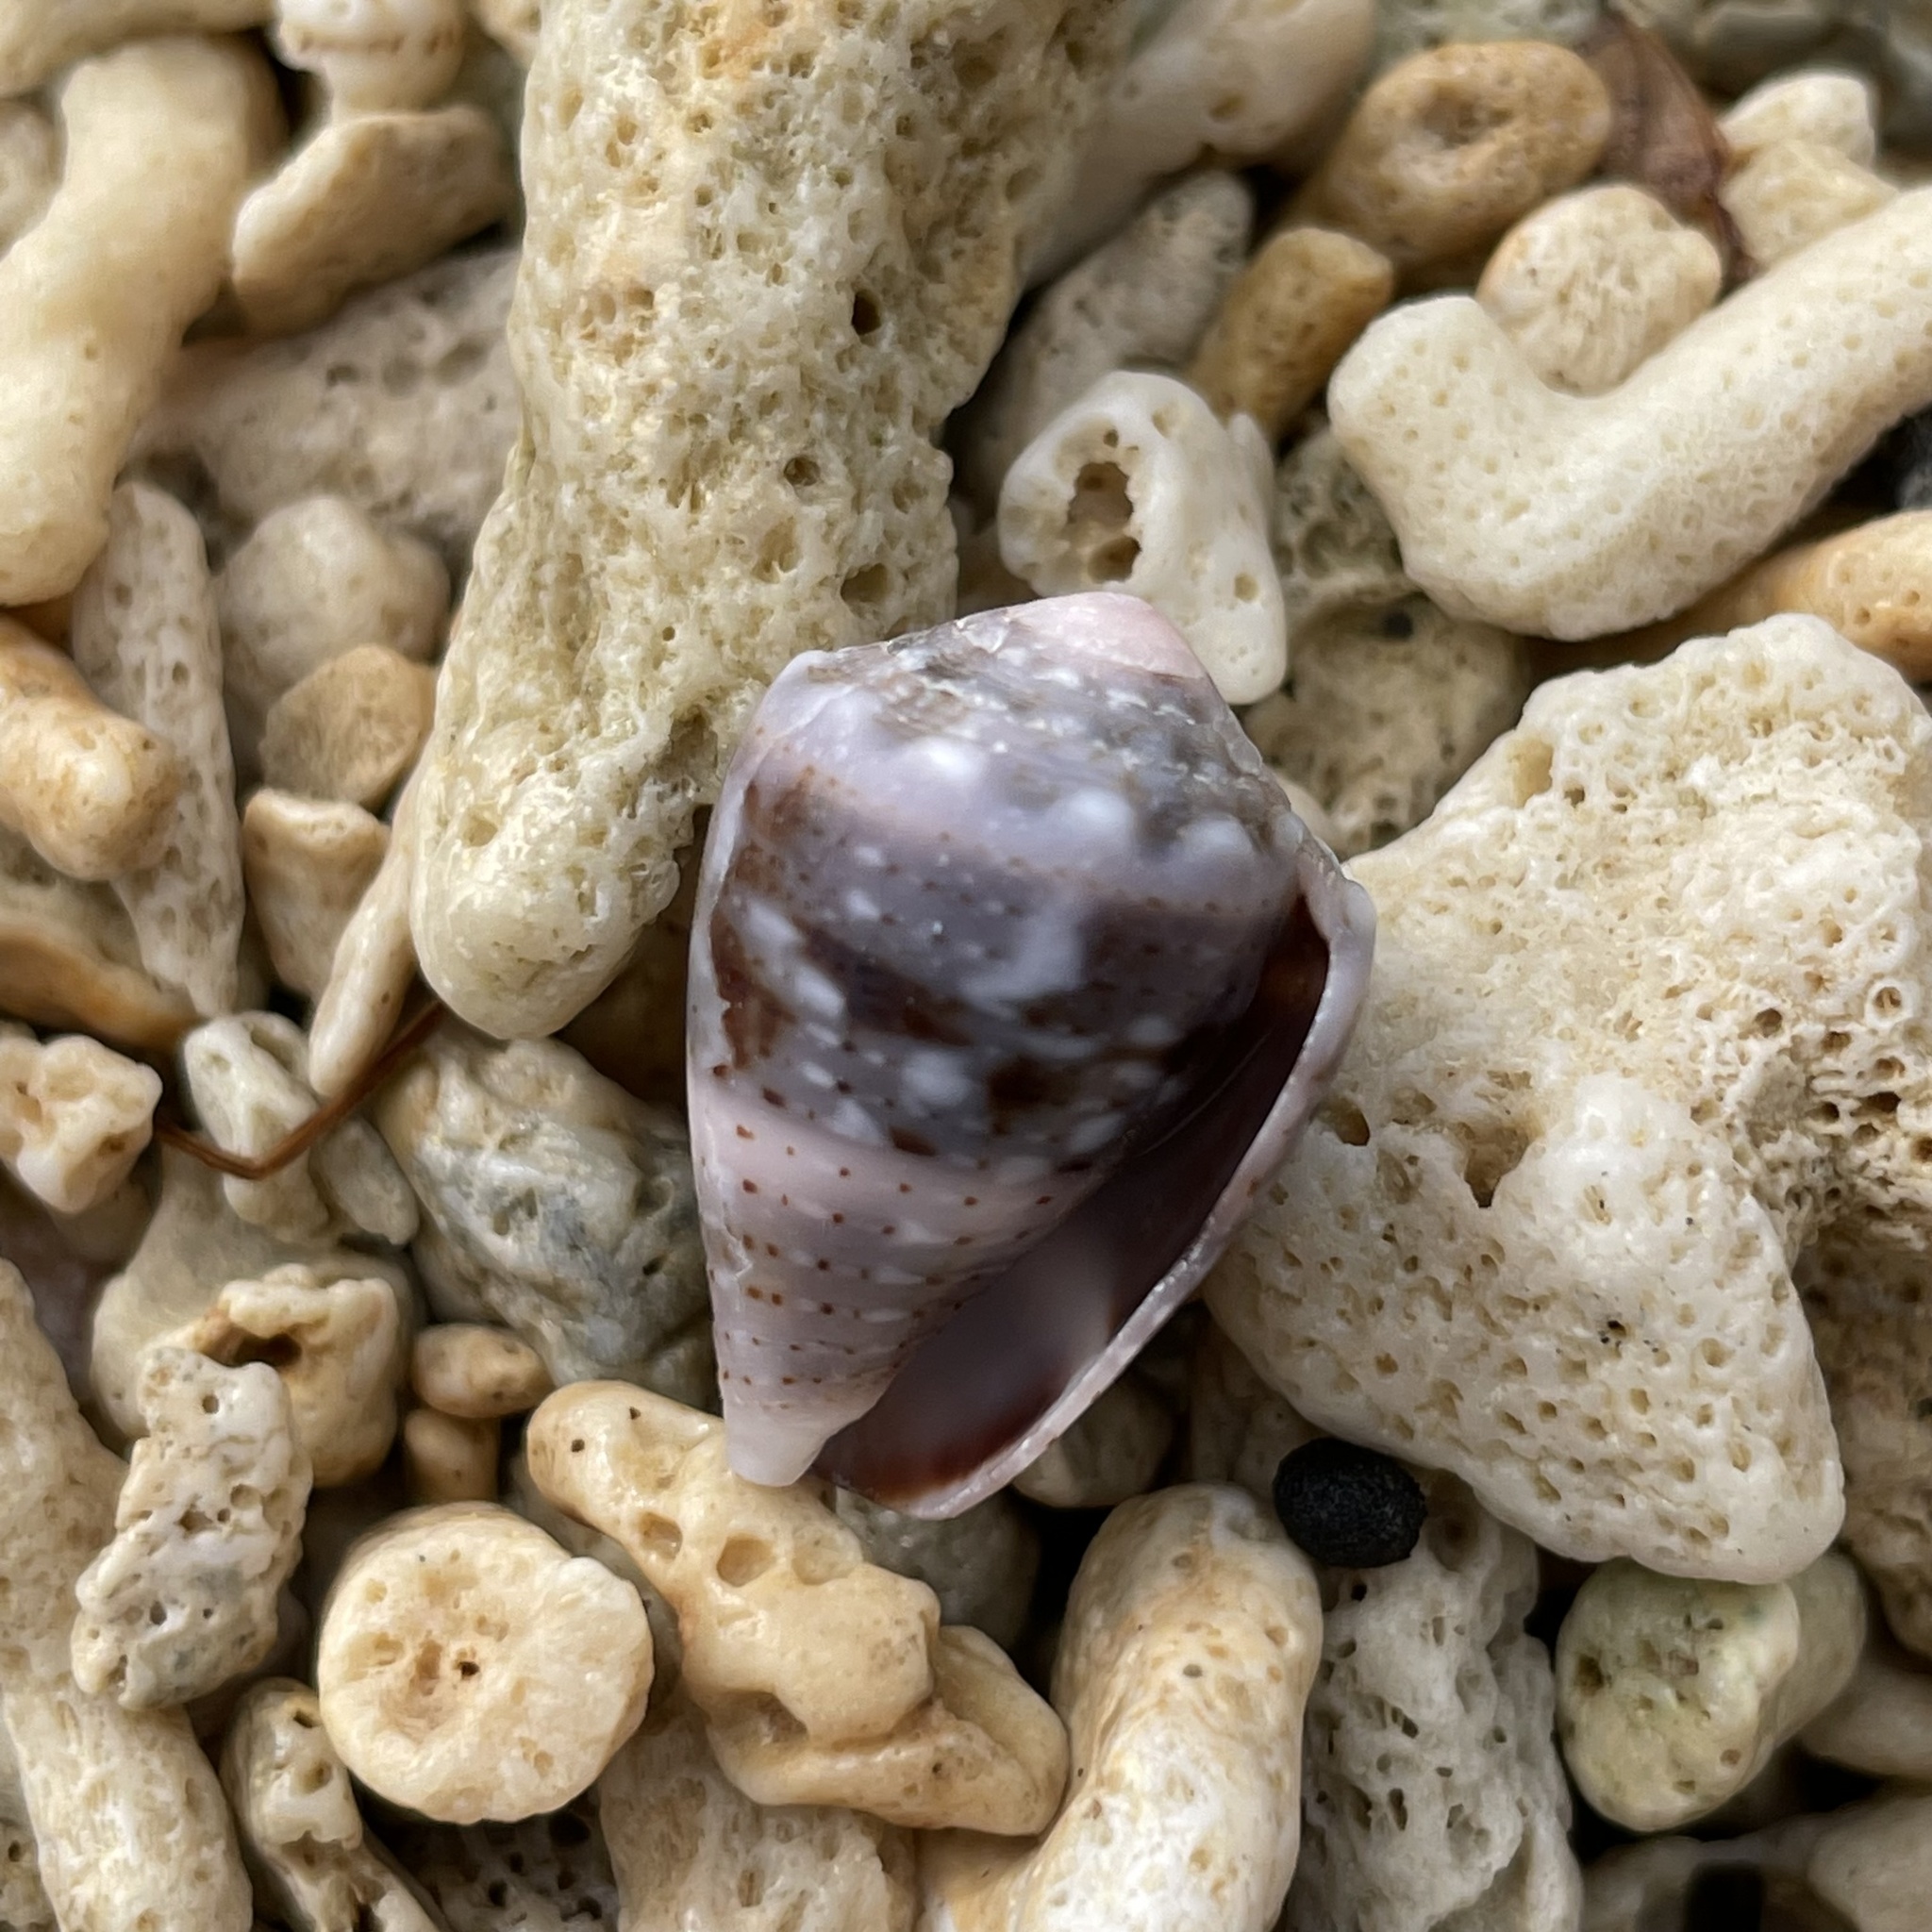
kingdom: Animalia
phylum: Mollusca
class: Gastropoda
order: Neogastropoda
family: Conidae
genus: Conus
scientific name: Conus coronatus
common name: Coronated cone
